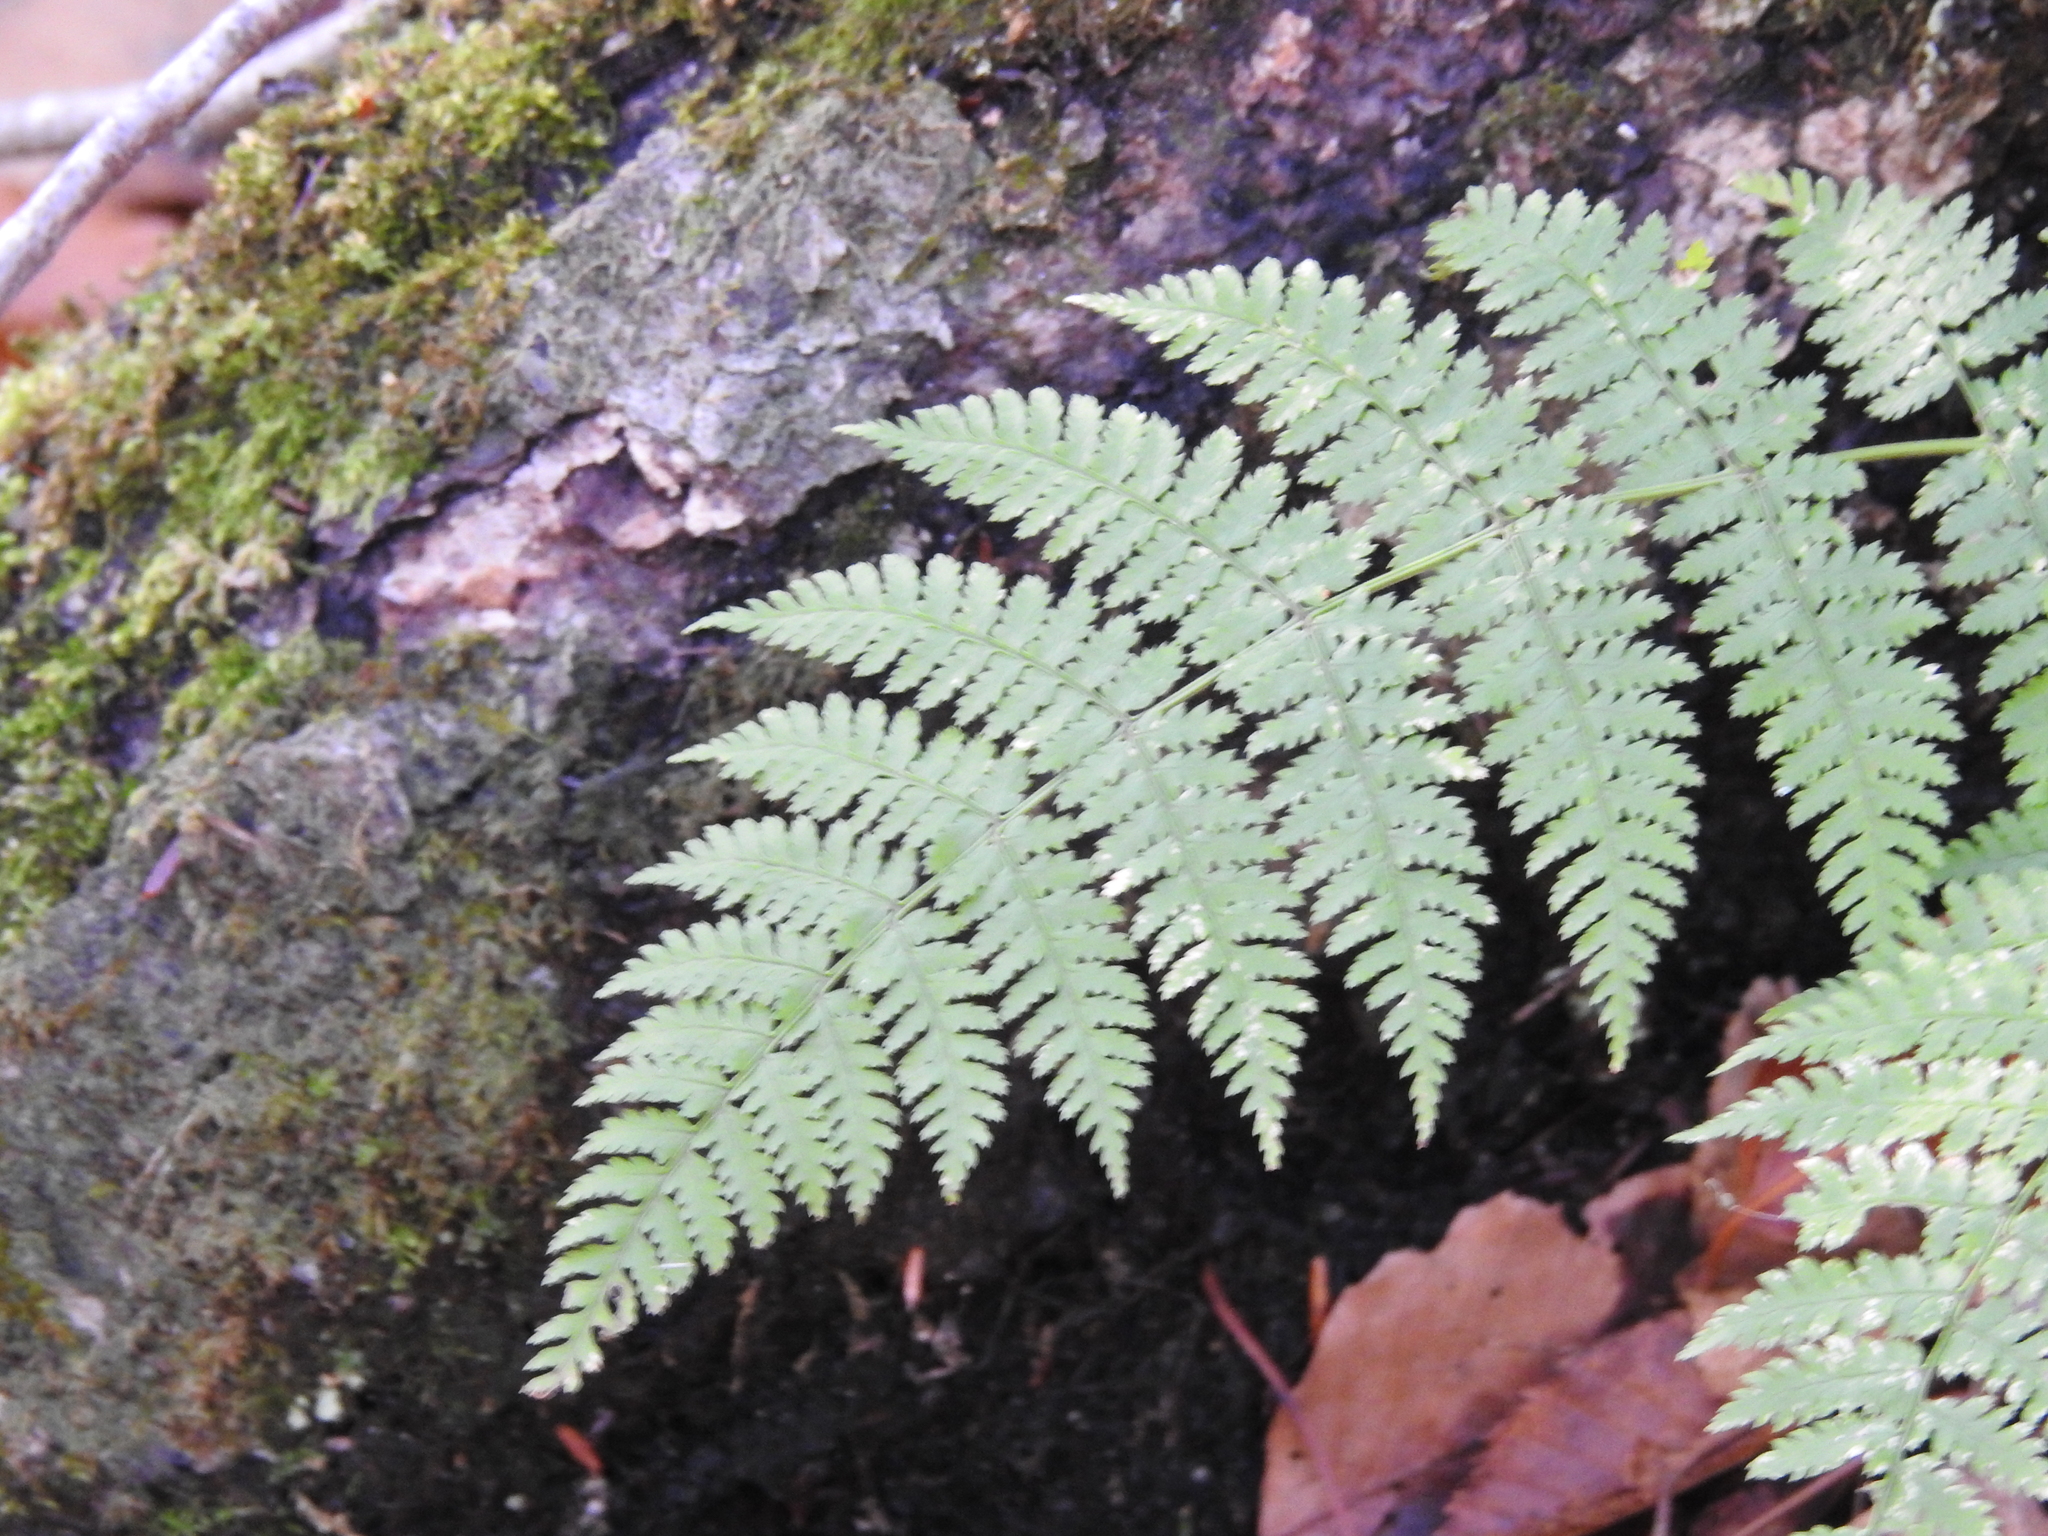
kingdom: Plantae
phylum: Tracheophyta
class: Polypodiopsida
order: Polypodiales
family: Dryopteridaceae
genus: Dryopteris
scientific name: Dryopteris intermedia
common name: Evergreen wood fern
